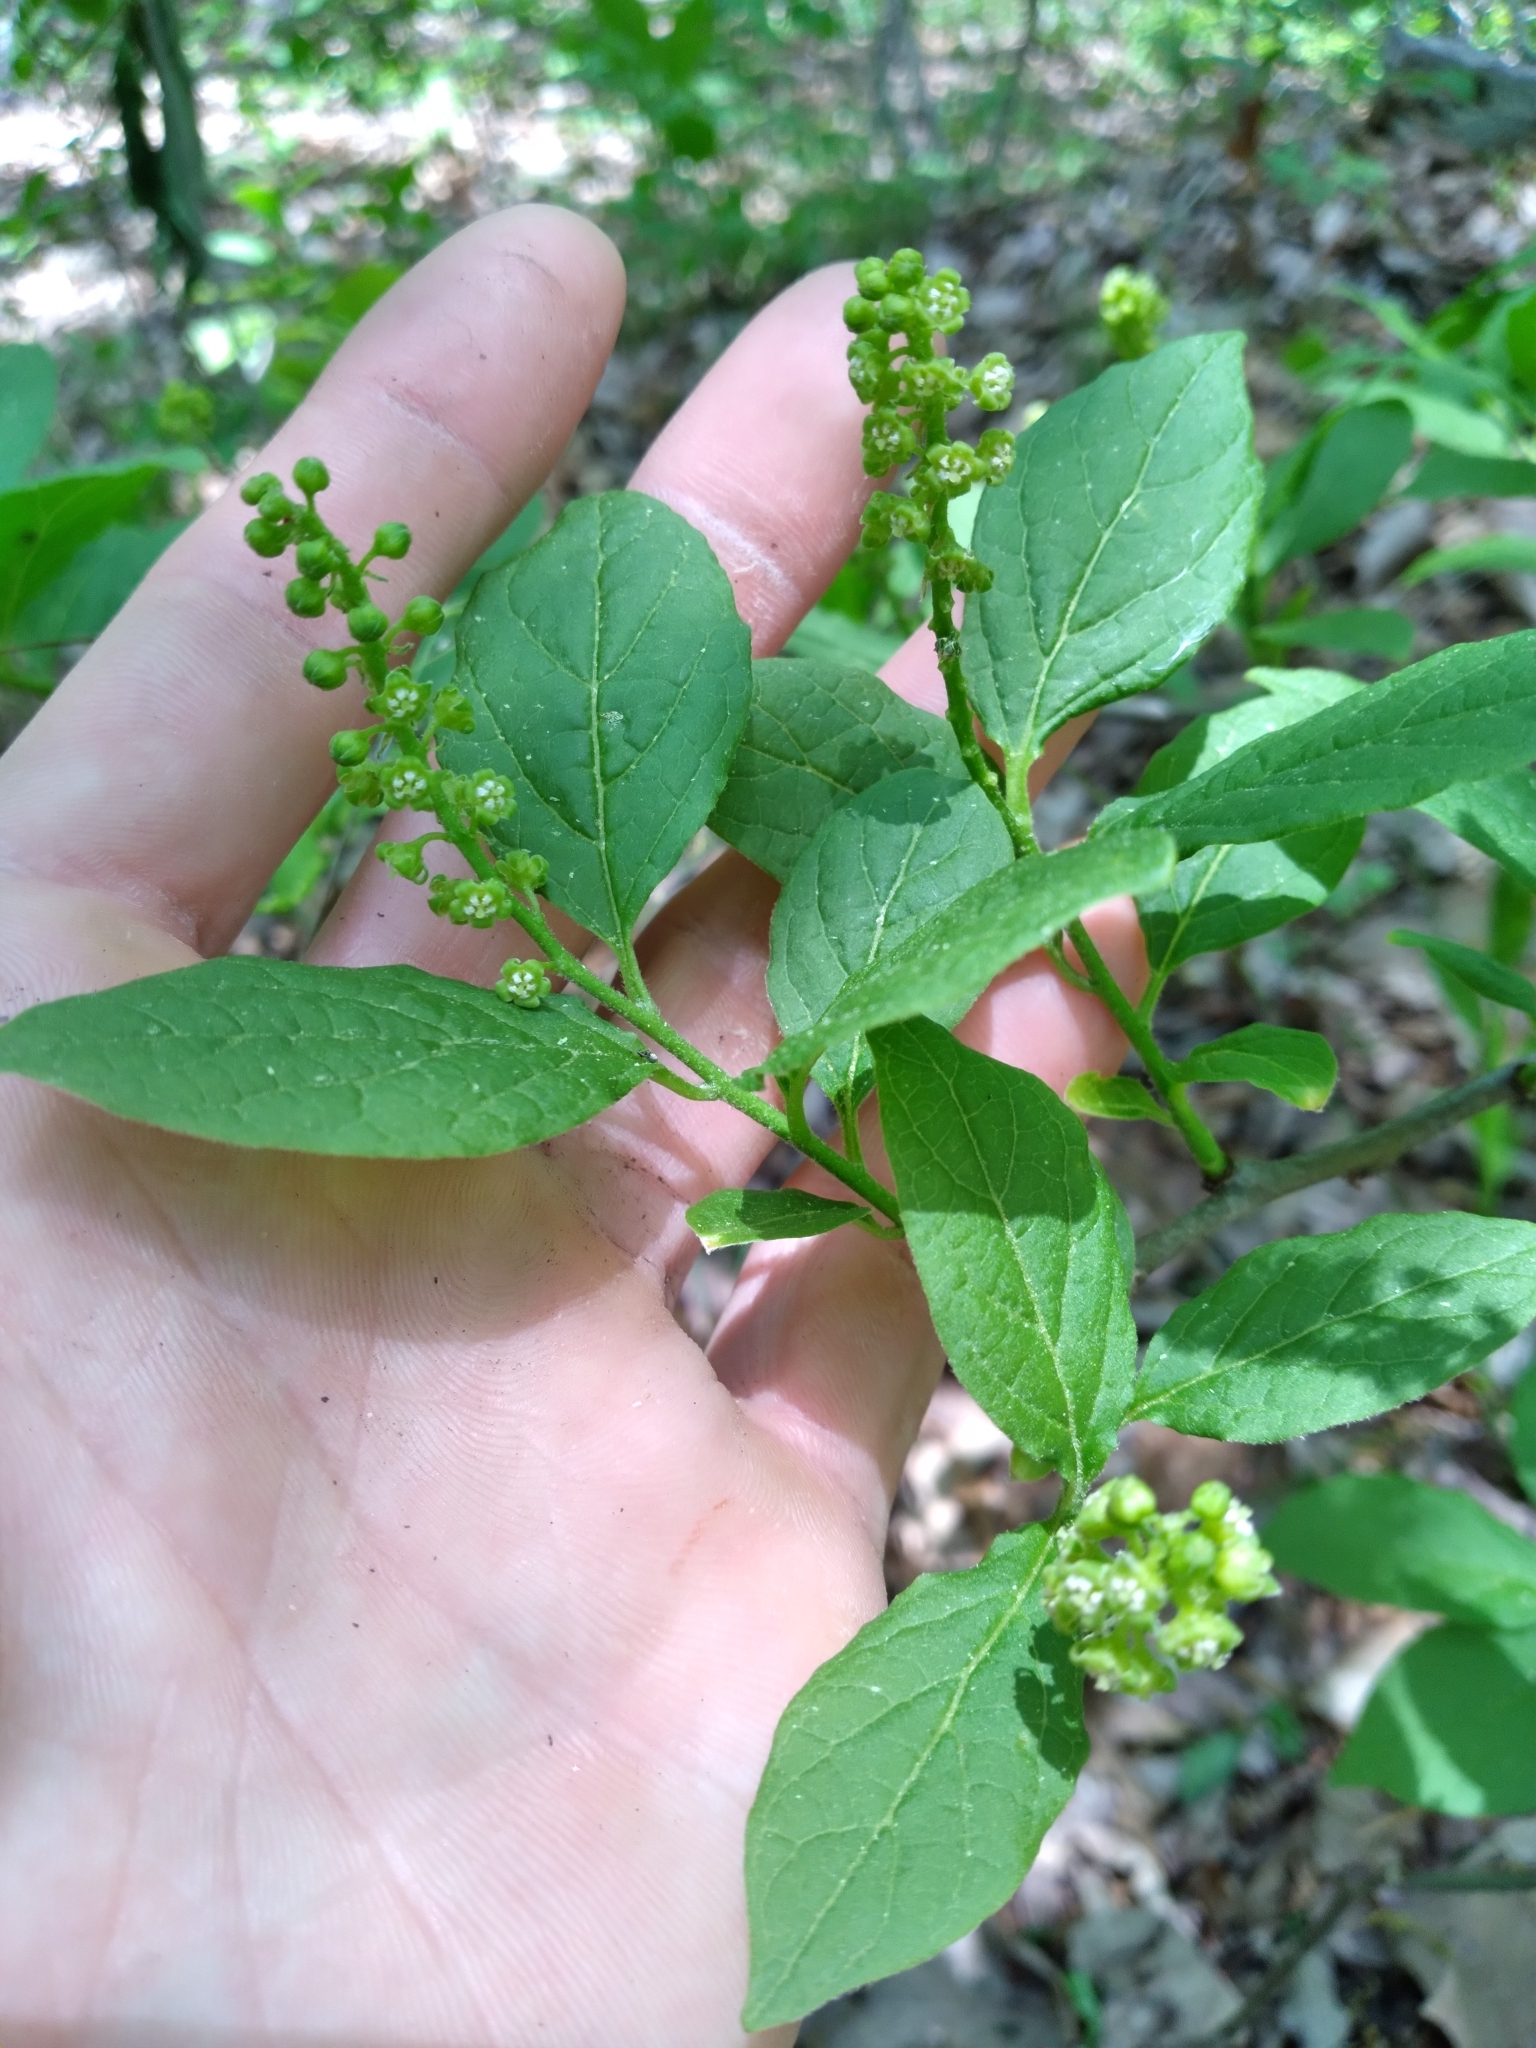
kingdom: Plantae
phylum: Tracheophyta
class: Magnoliopsida
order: Santalales
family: Cervantesiaceae
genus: Pyrularia
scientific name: Pyrularia pubera
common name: Oilnut
